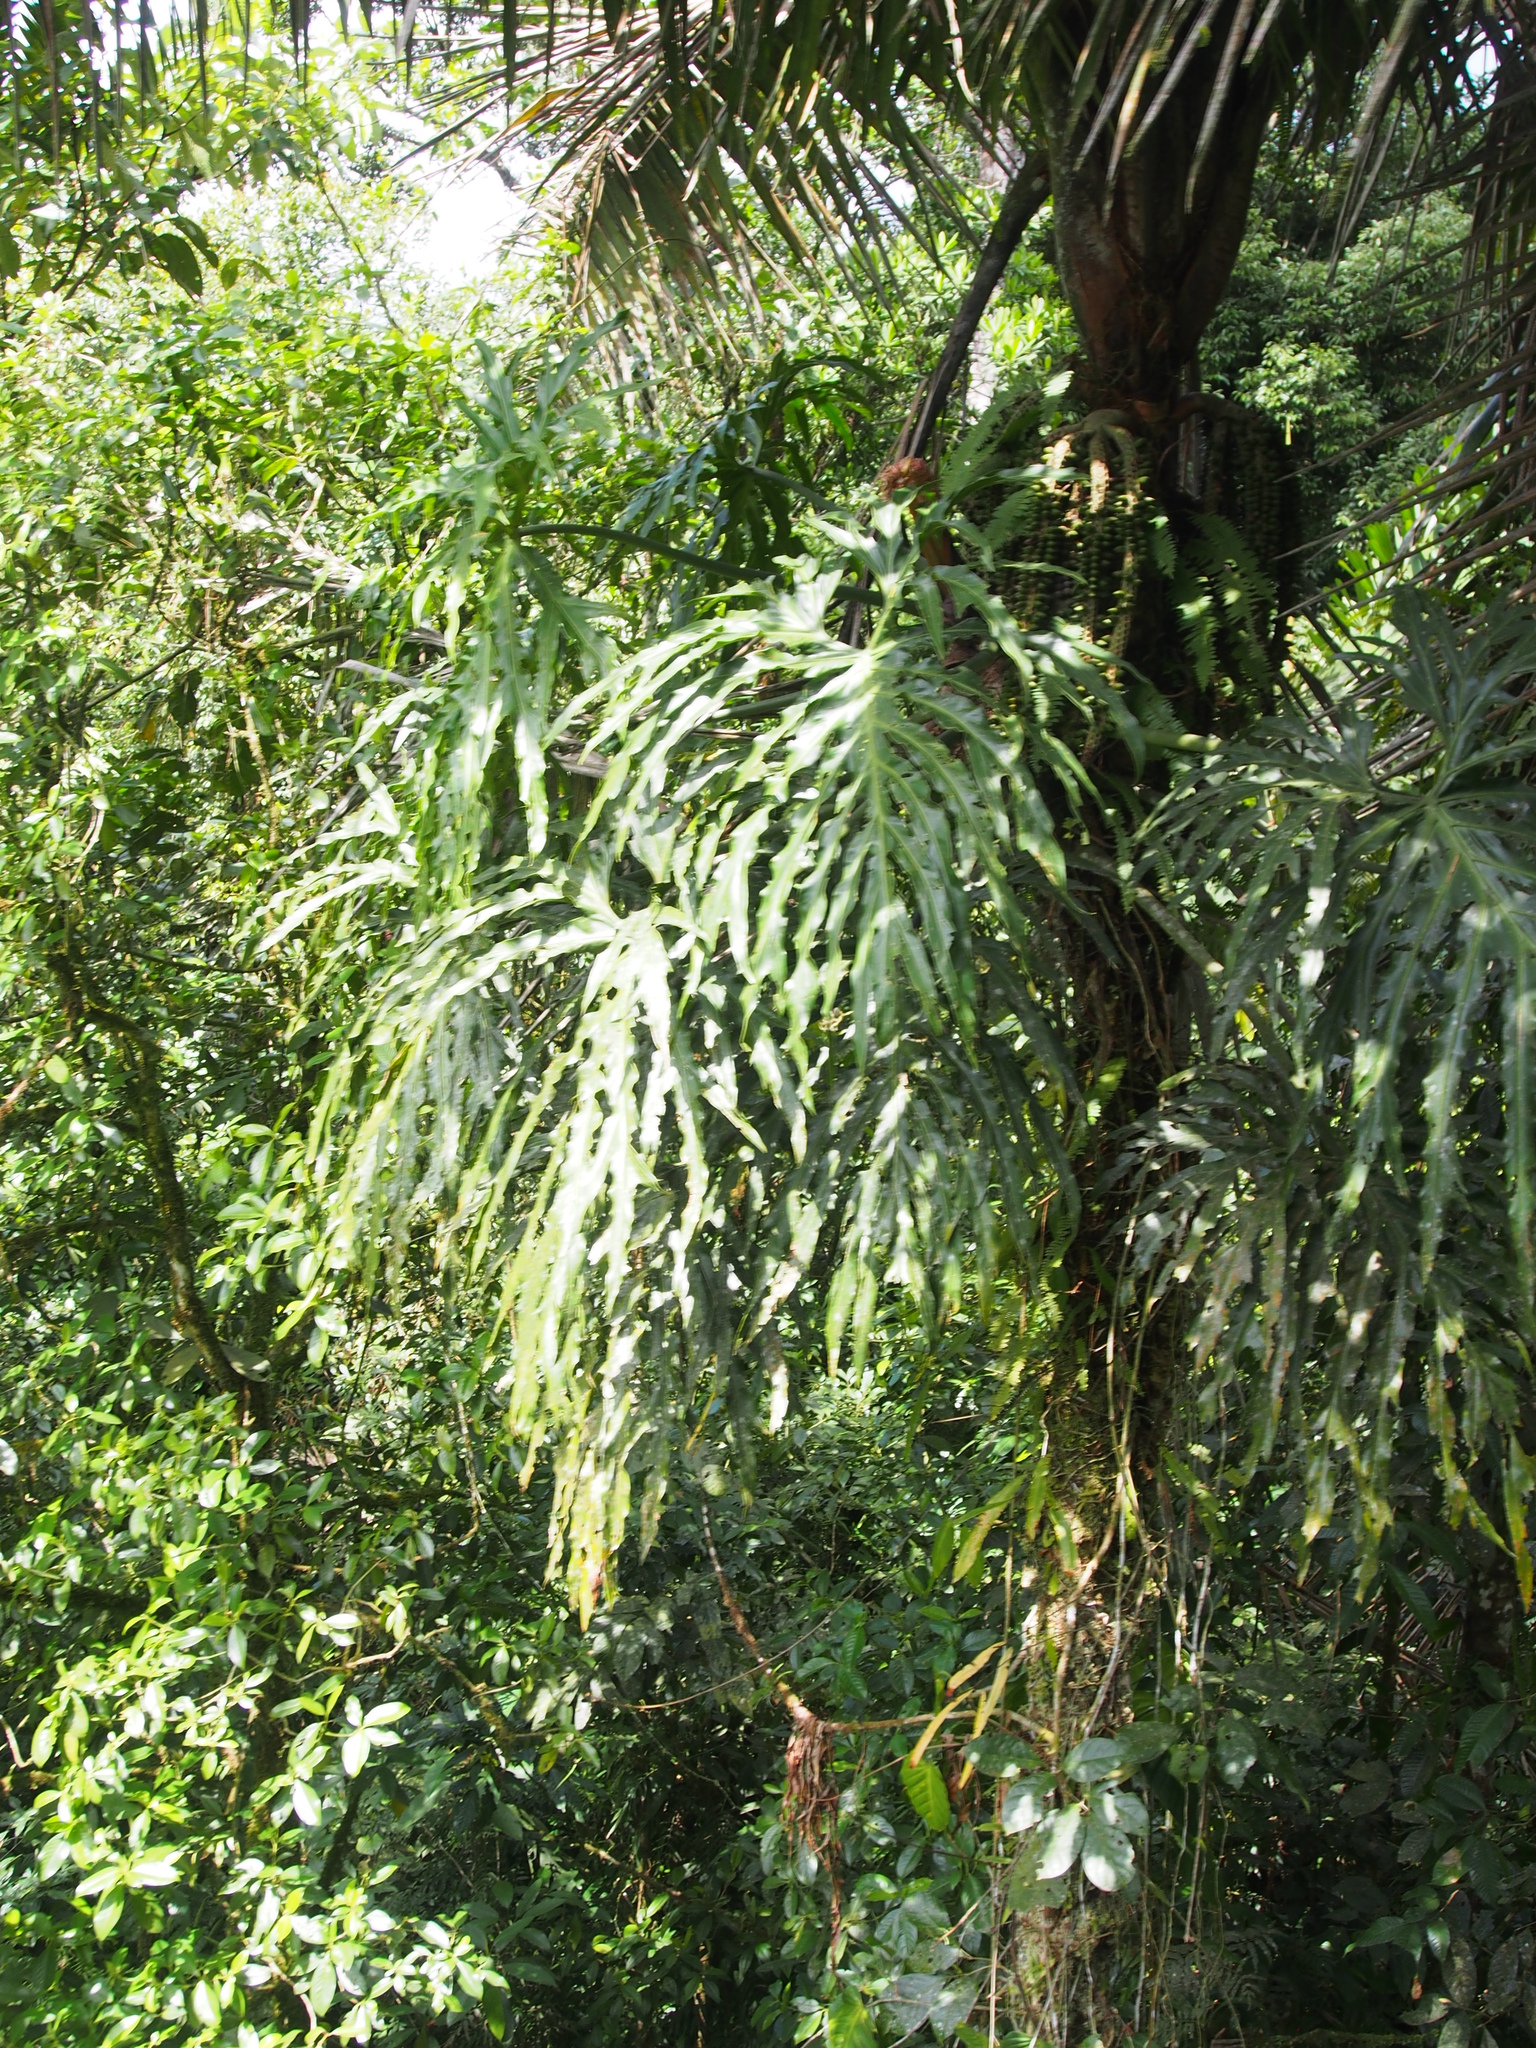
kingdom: Plantae
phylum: Tracheophyta
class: Liliopsida
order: Alismatales
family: Araceae
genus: Philodendron
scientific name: Philodendron radiatum
